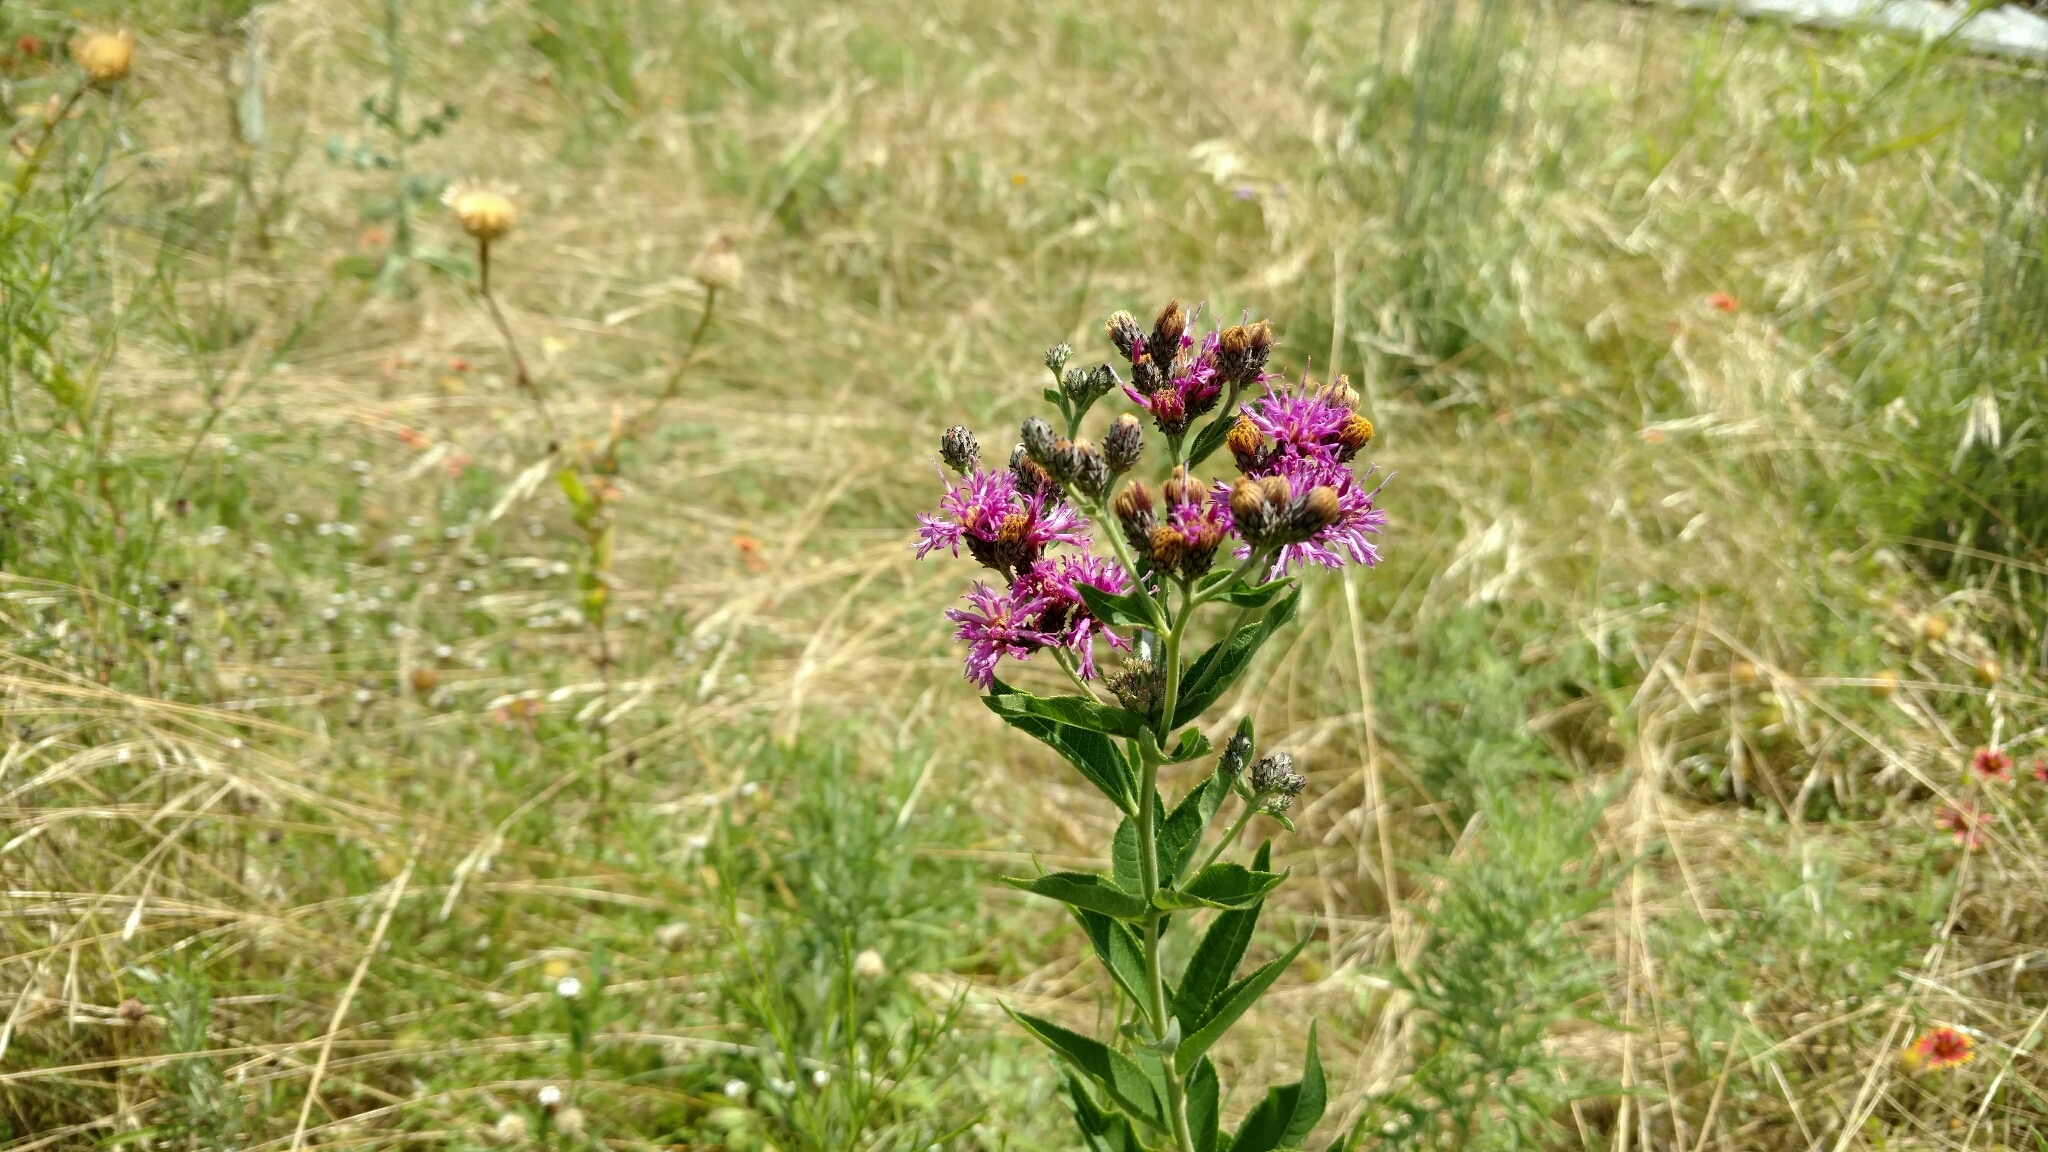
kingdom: Plantae
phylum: Tracheophyta
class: Magnoliopsida
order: Asterales
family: Asteraceae
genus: Vernonia
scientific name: Vernonia baldwinii
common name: Western ironweed
